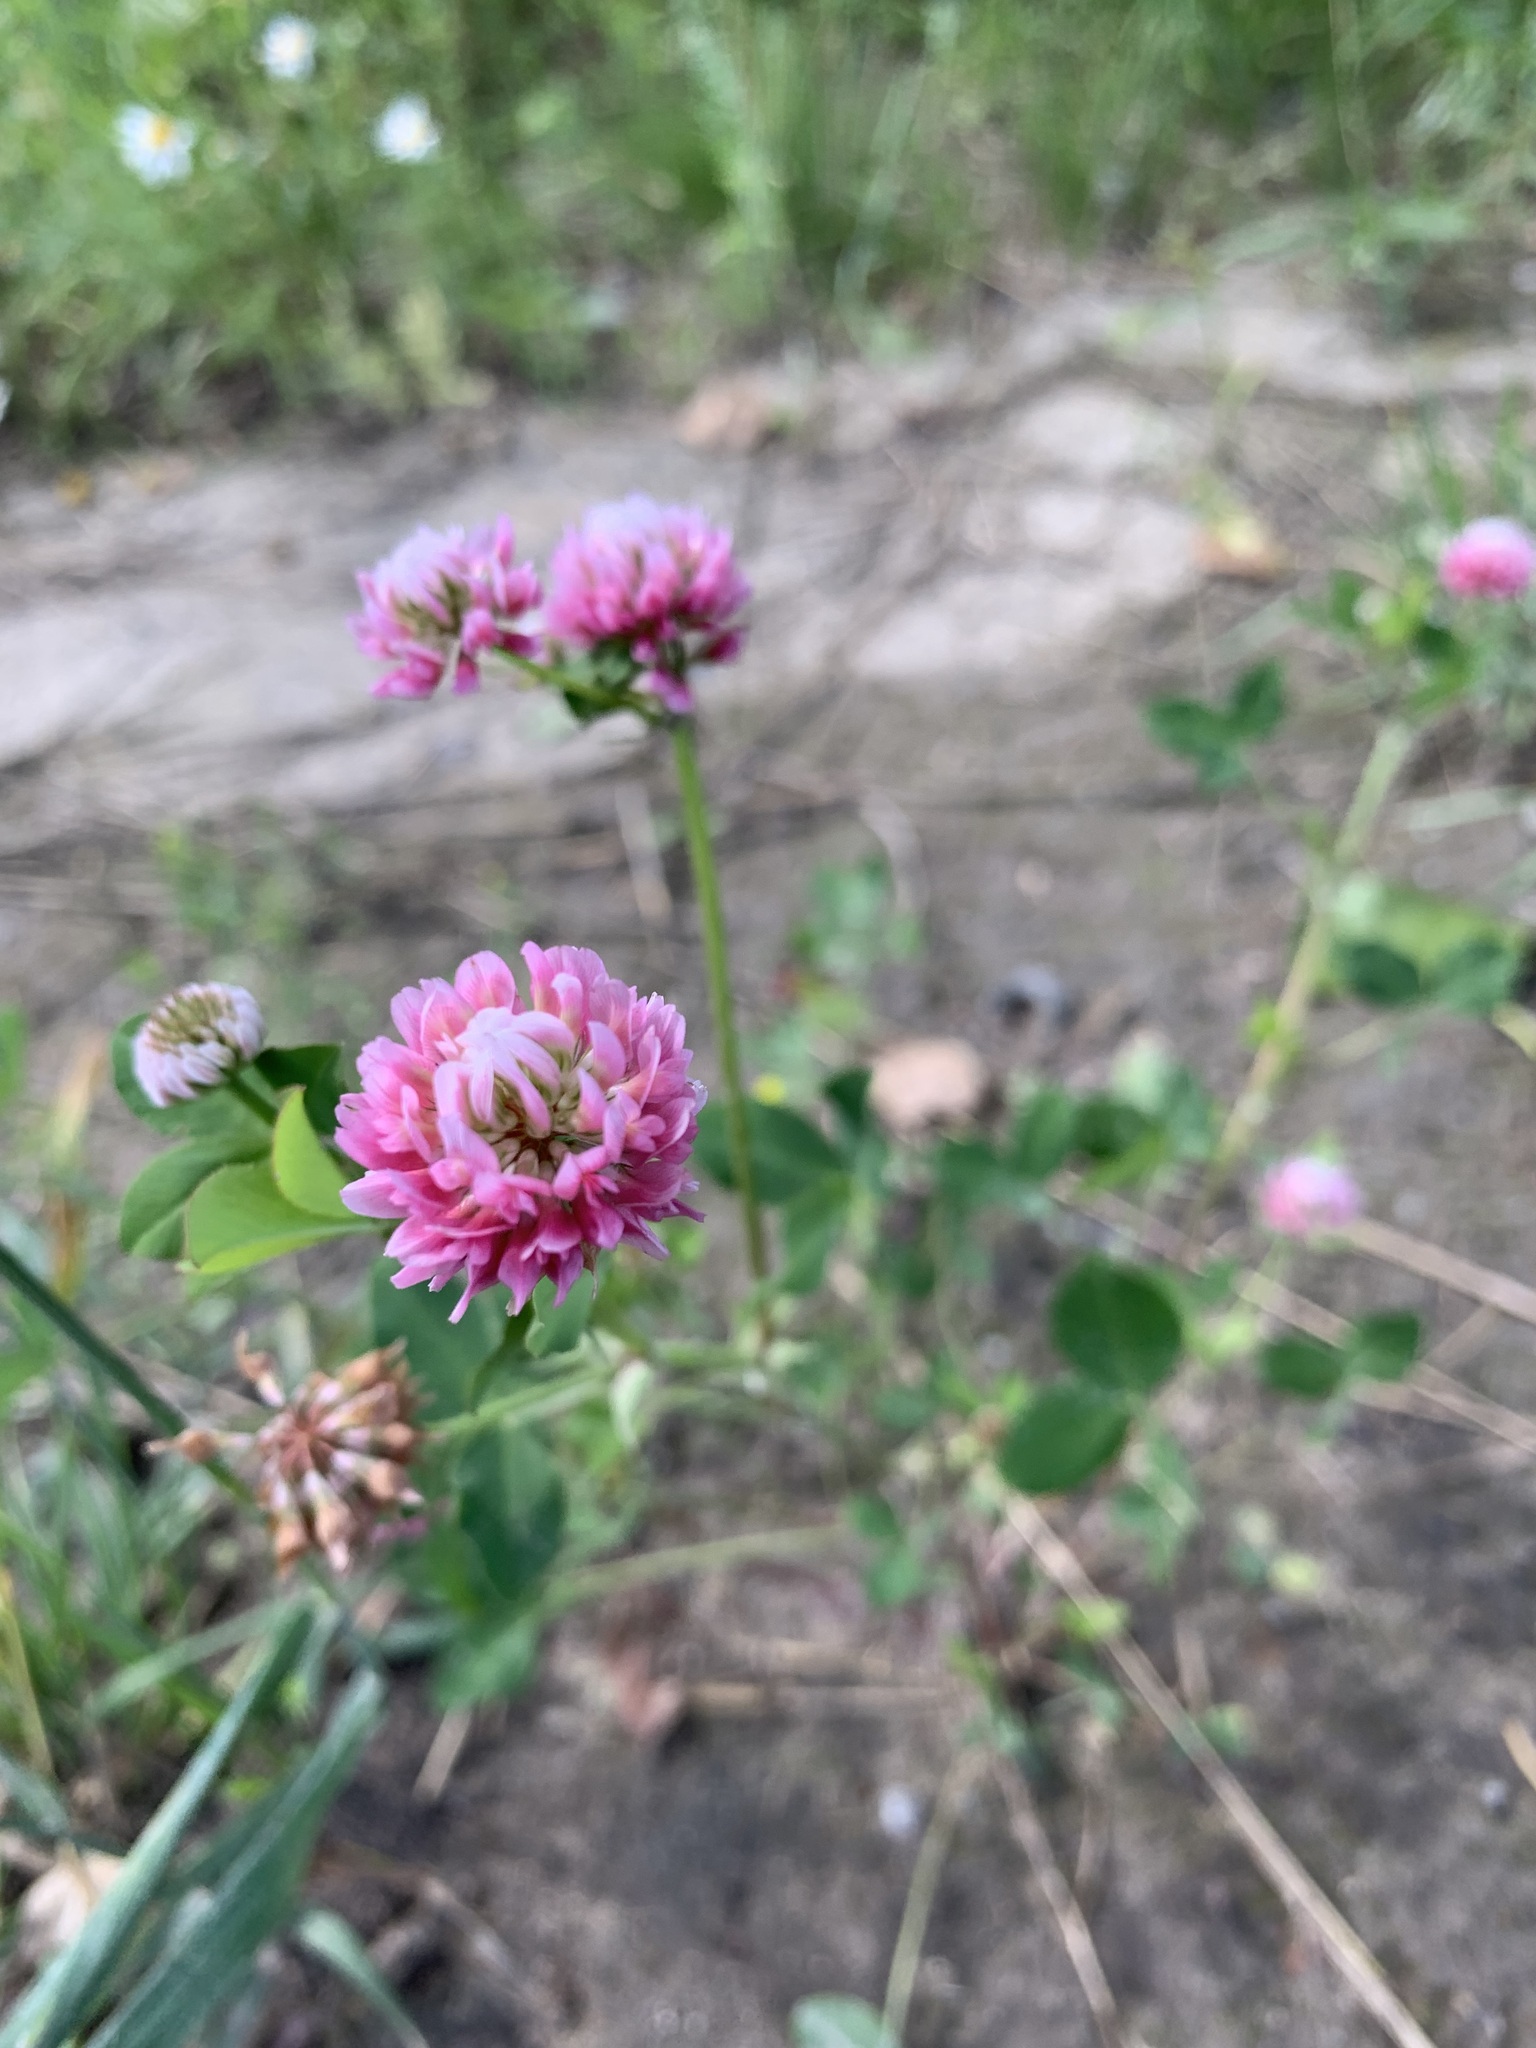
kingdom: Plantae
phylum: Tracheophyta
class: Magnoliopsida
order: Fabales
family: Fabaceae
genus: Trifolium
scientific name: Trifolium hybridum
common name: Alsike clover
